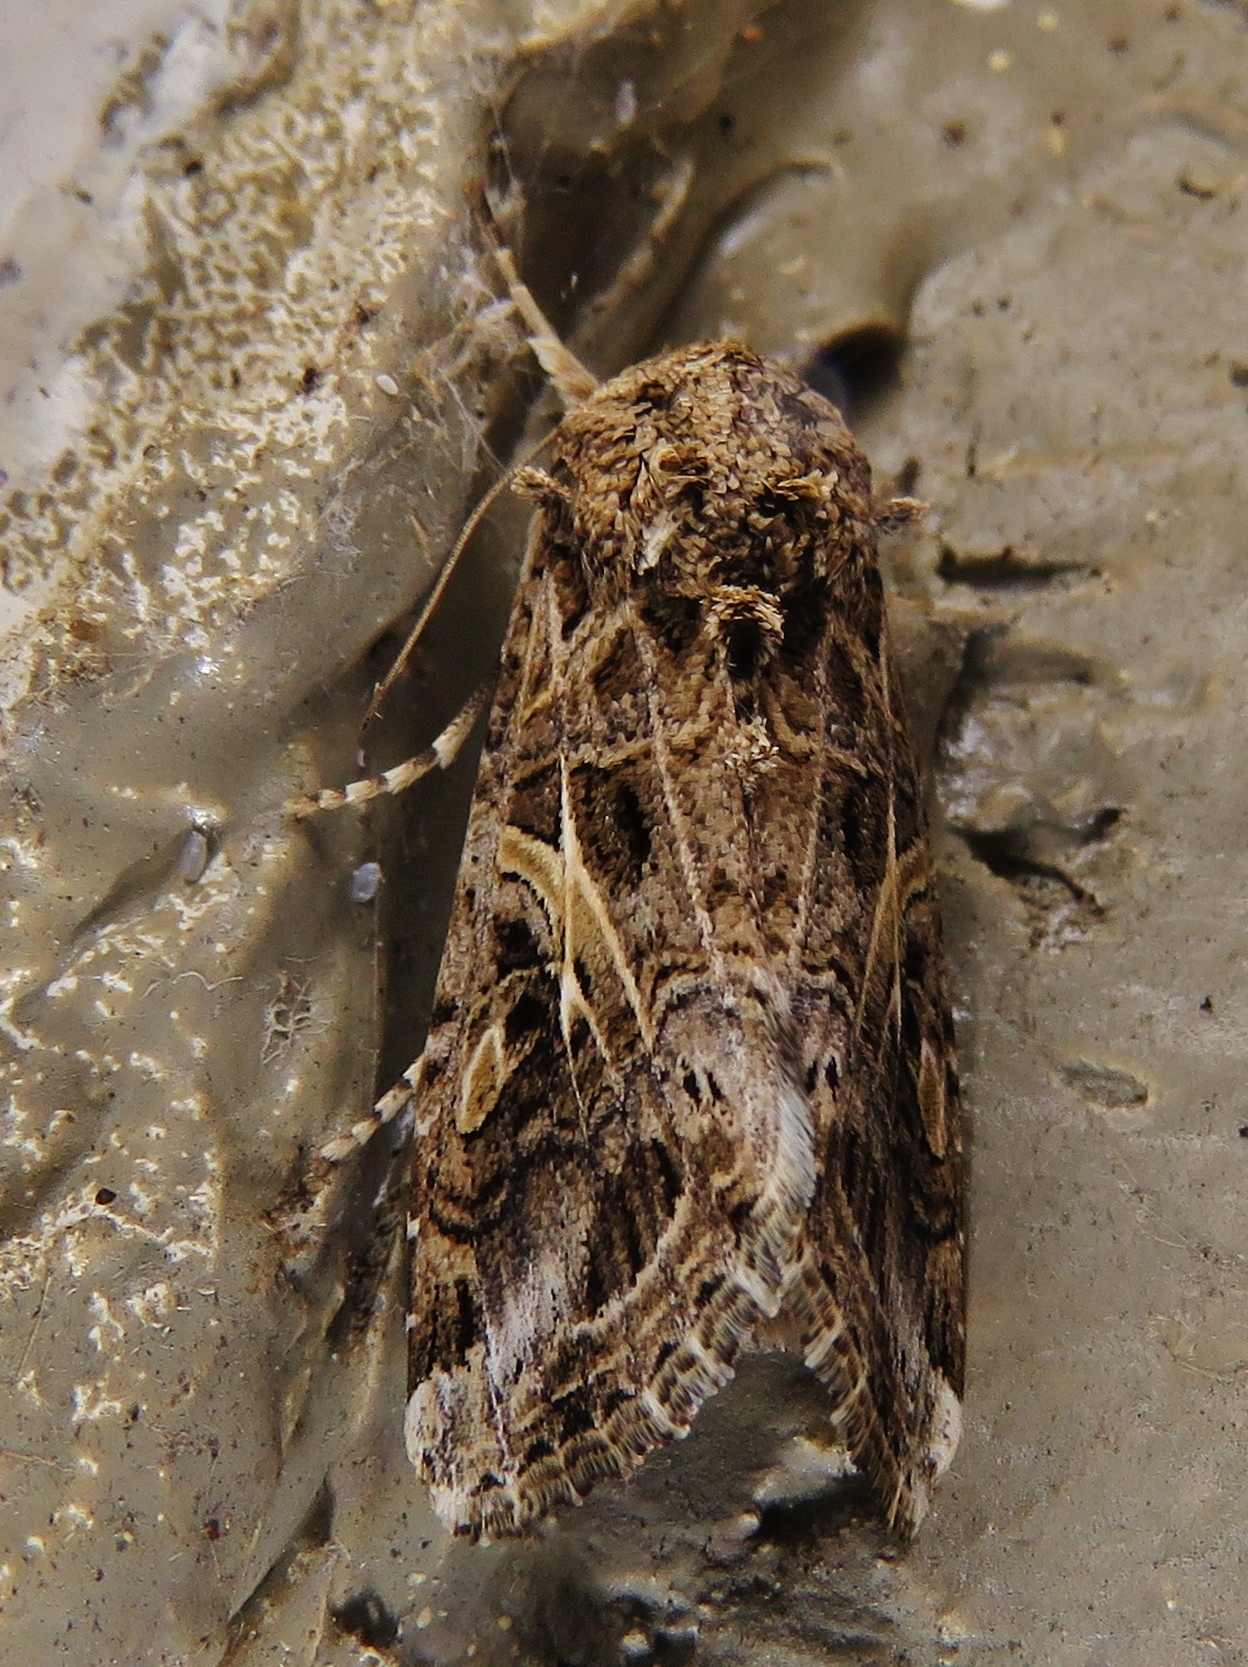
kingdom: Animalia
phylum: Arthropoda
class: Insecta
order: Lepidoptera
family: Noctuidae
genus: Spodoptera
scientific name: Spodoptera ornithogalli
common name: Yellow-striped armyworm
